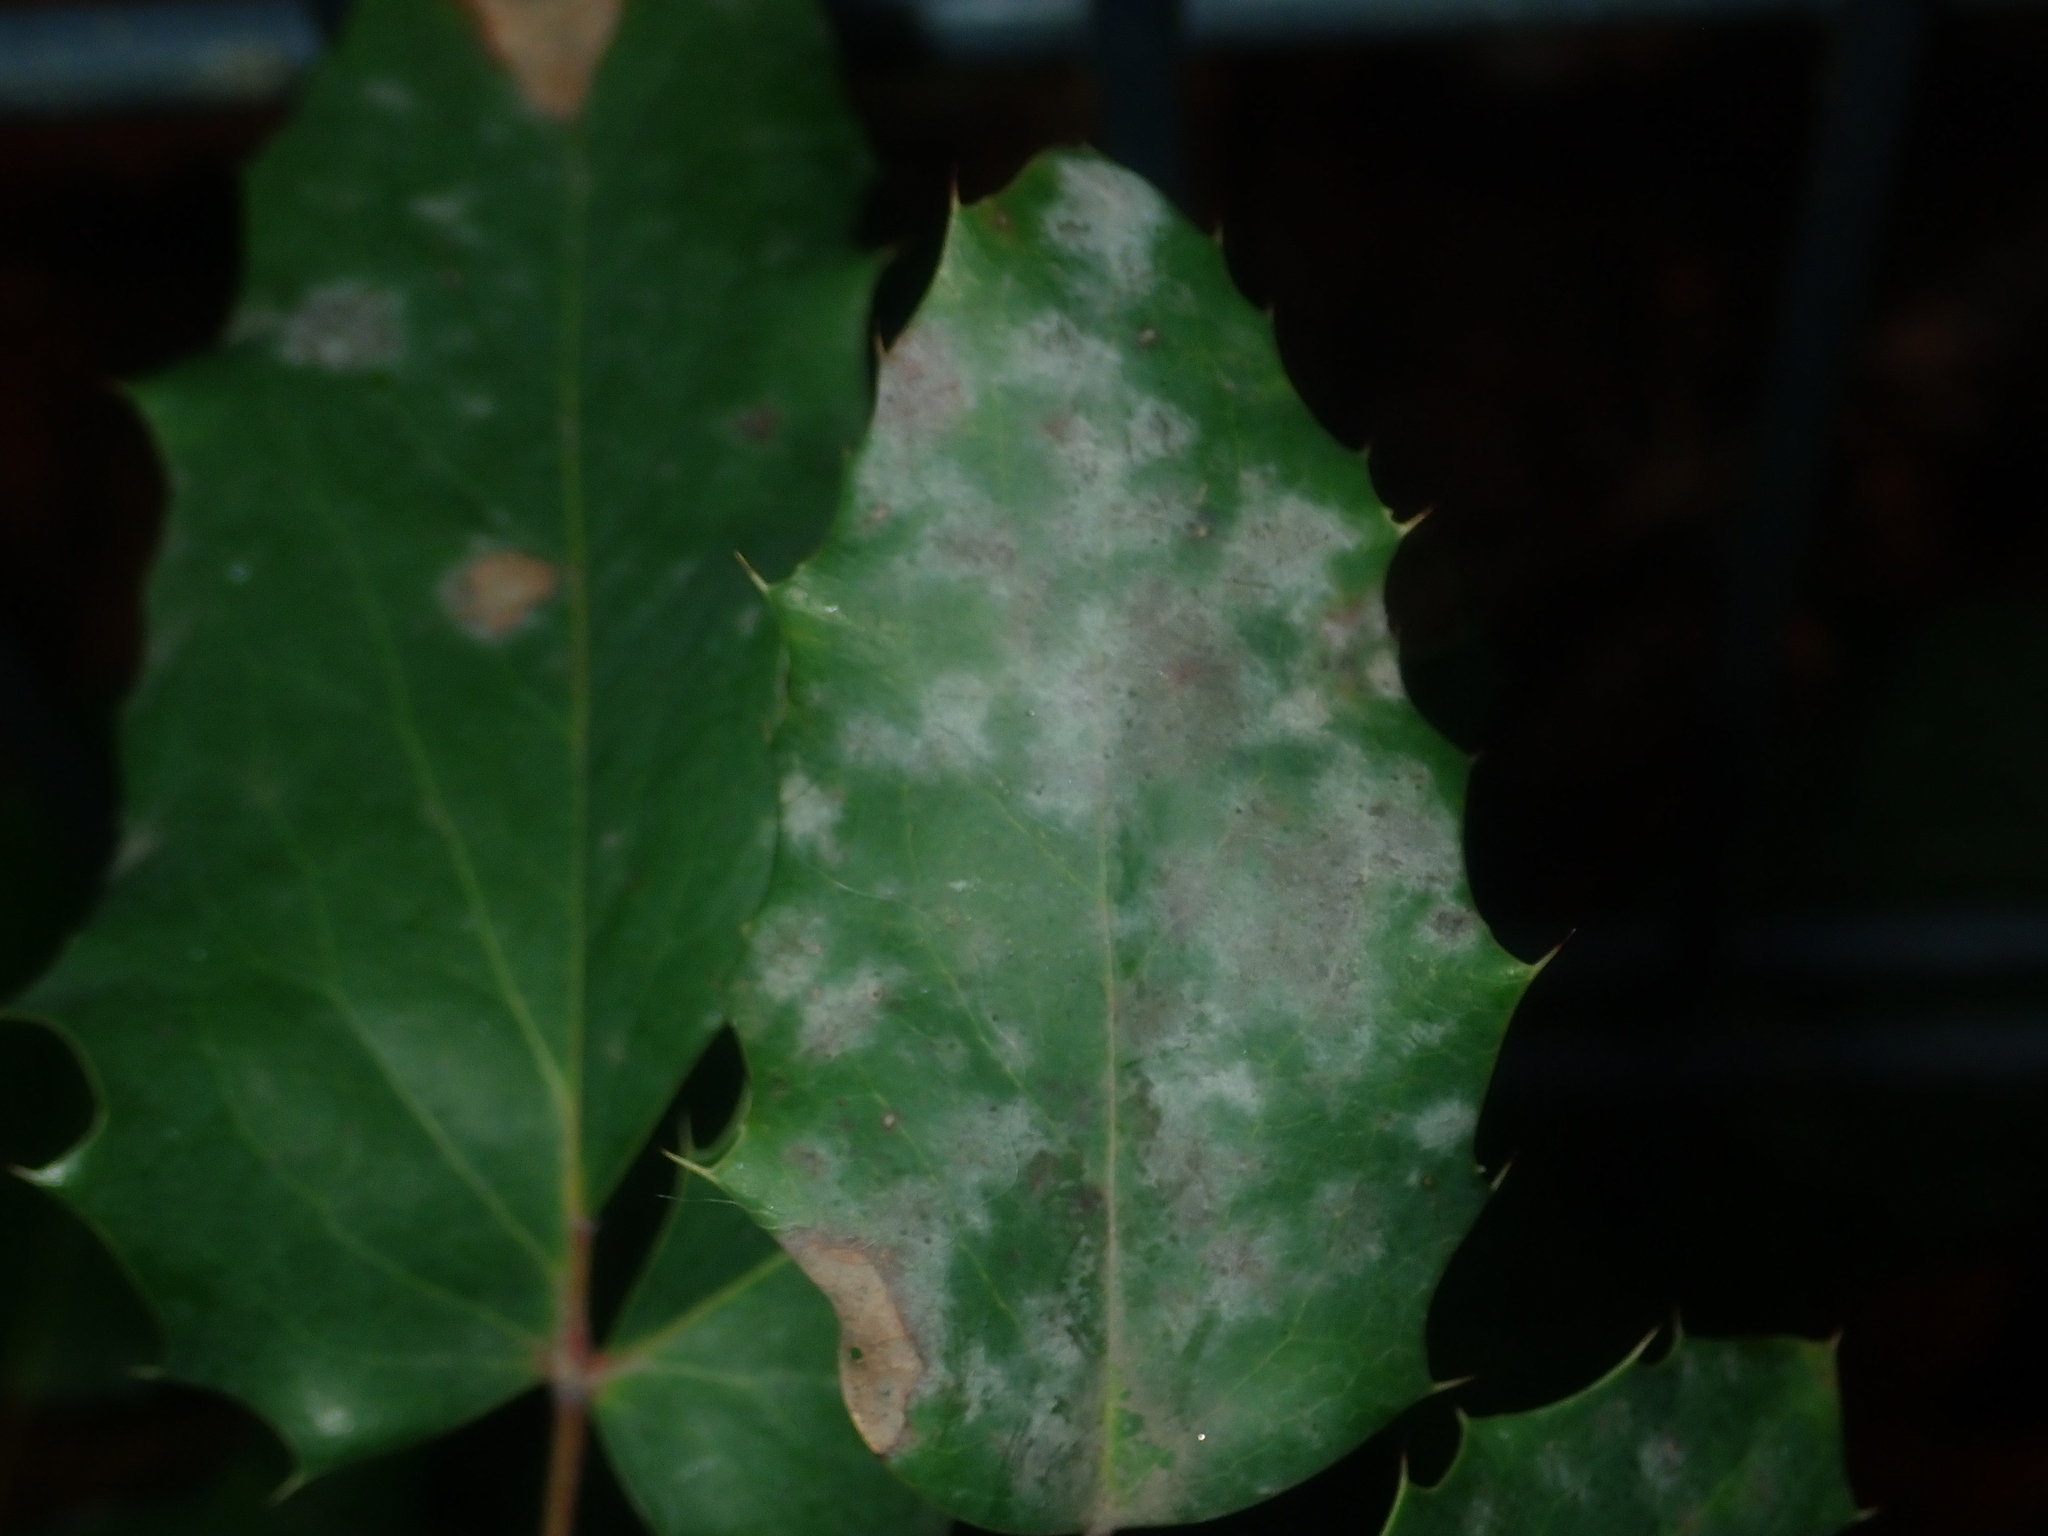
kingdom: Fungi
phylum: Ascomycota
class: Leotiomycetes
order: Helotiales
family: Erysiphaceae
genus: Erysiphe
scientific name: Erysiphe berberidis
